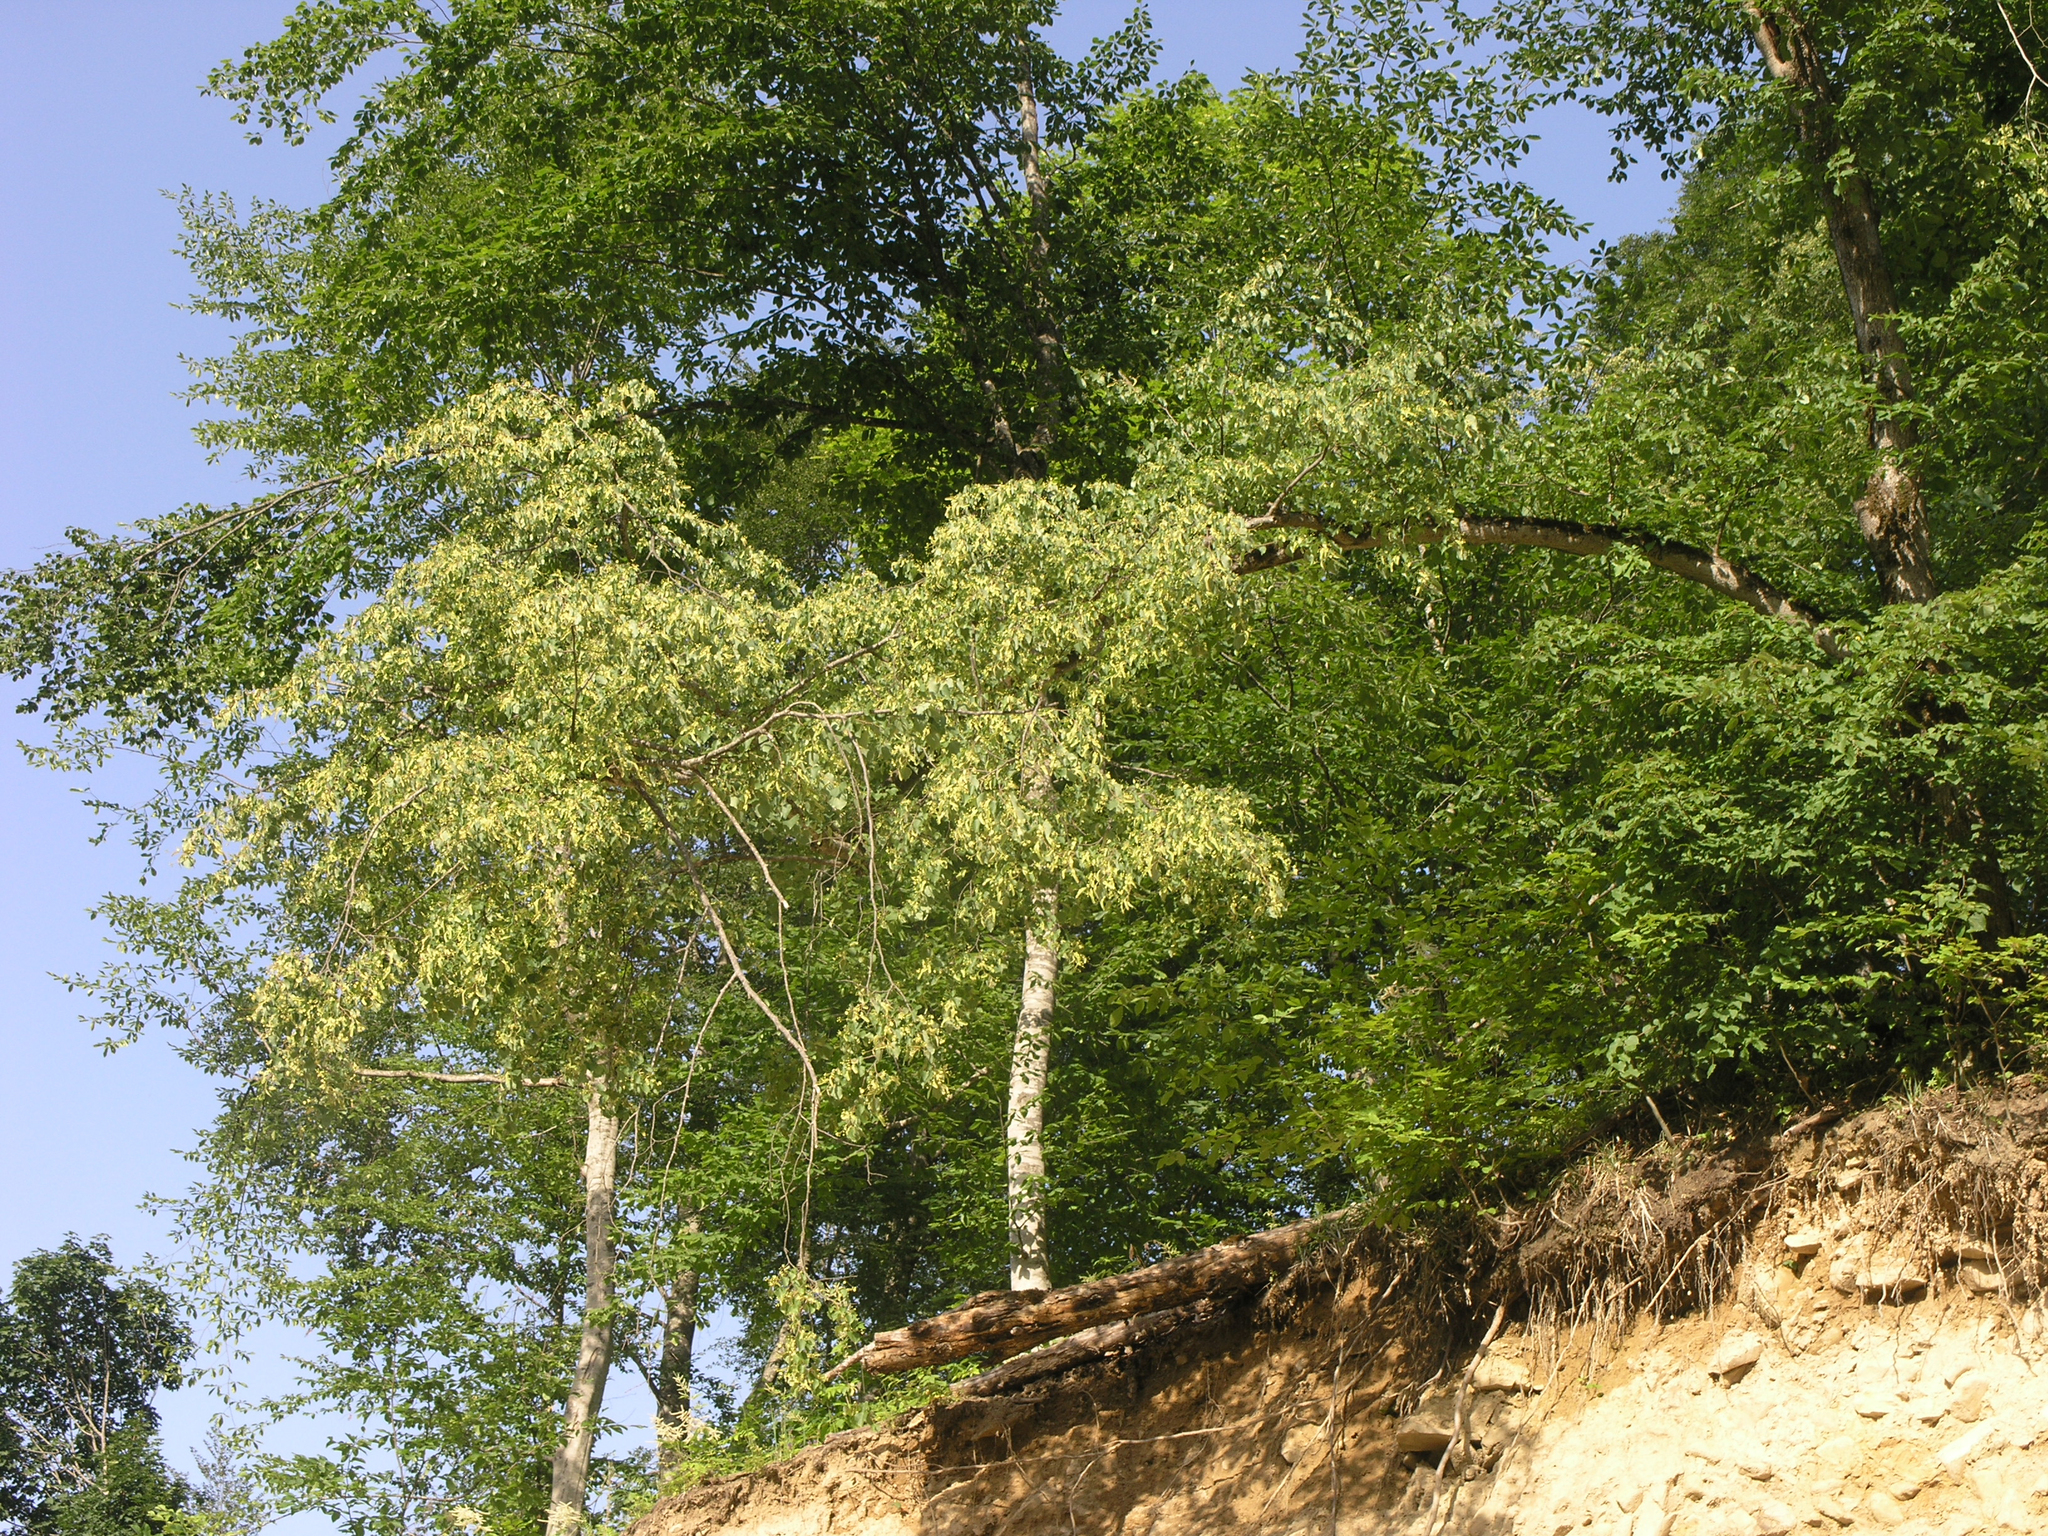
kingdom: Plantae
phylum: Tracheophyta
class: Magnoliopsida
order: Malvales
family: Malvaceae
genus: Tilia
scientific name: Tilia cordata
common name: Small-leaved lime
